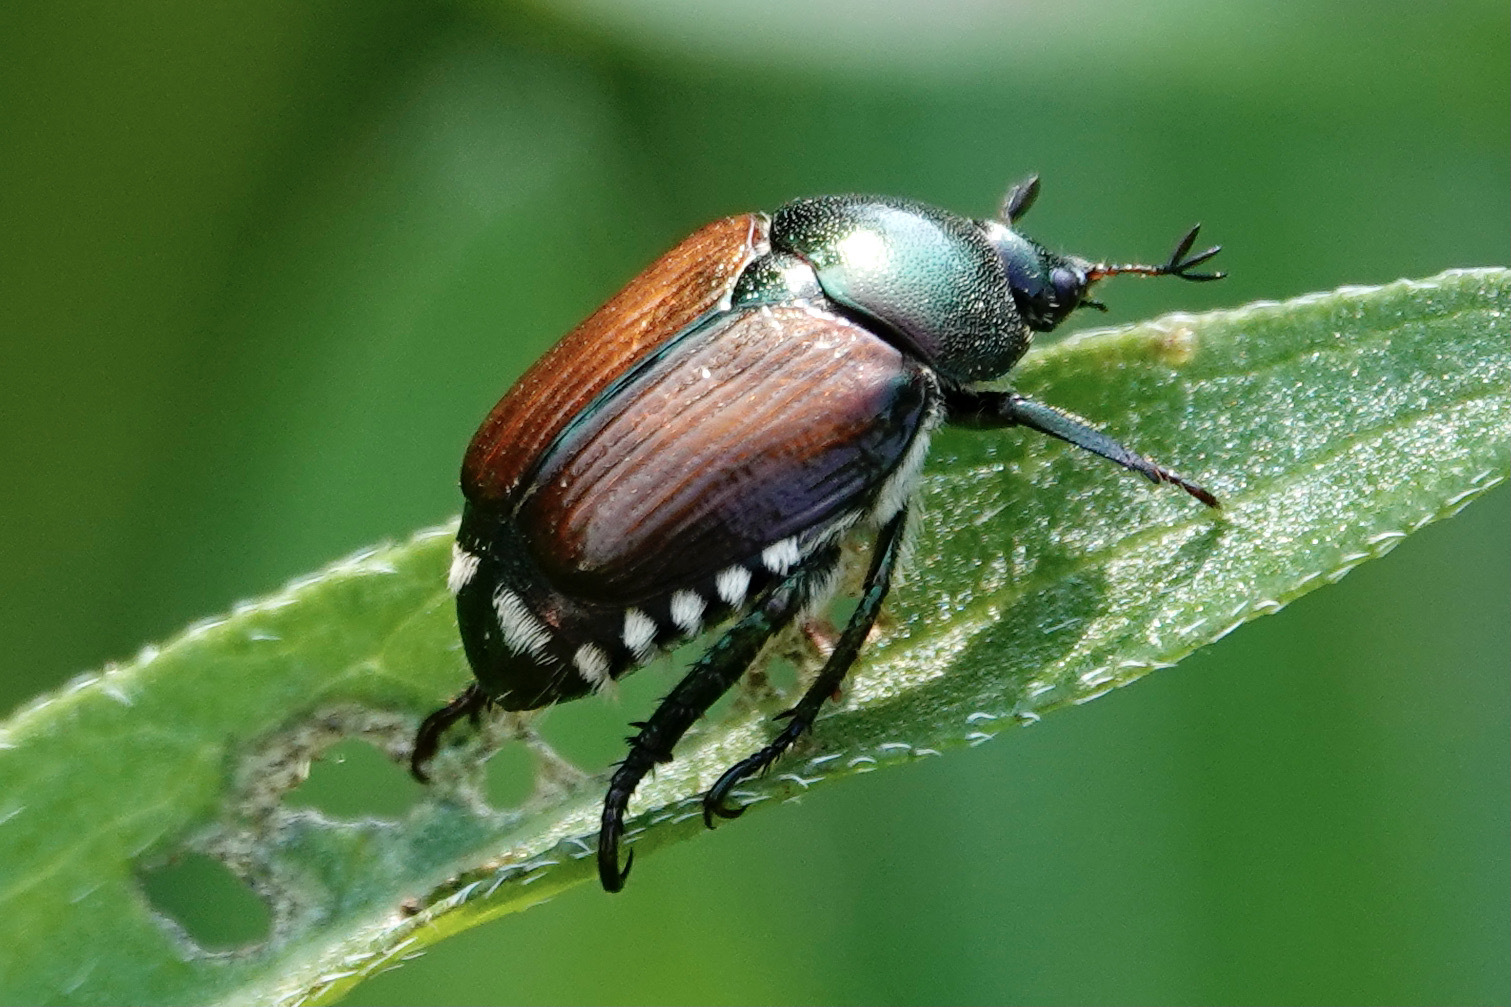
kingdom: Animalia
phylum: Arthropoda
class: Insecta
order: Coleoptera
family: Scarabaeidae
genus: Popillia
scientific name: Popillia japonica
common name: Japanese beetle
